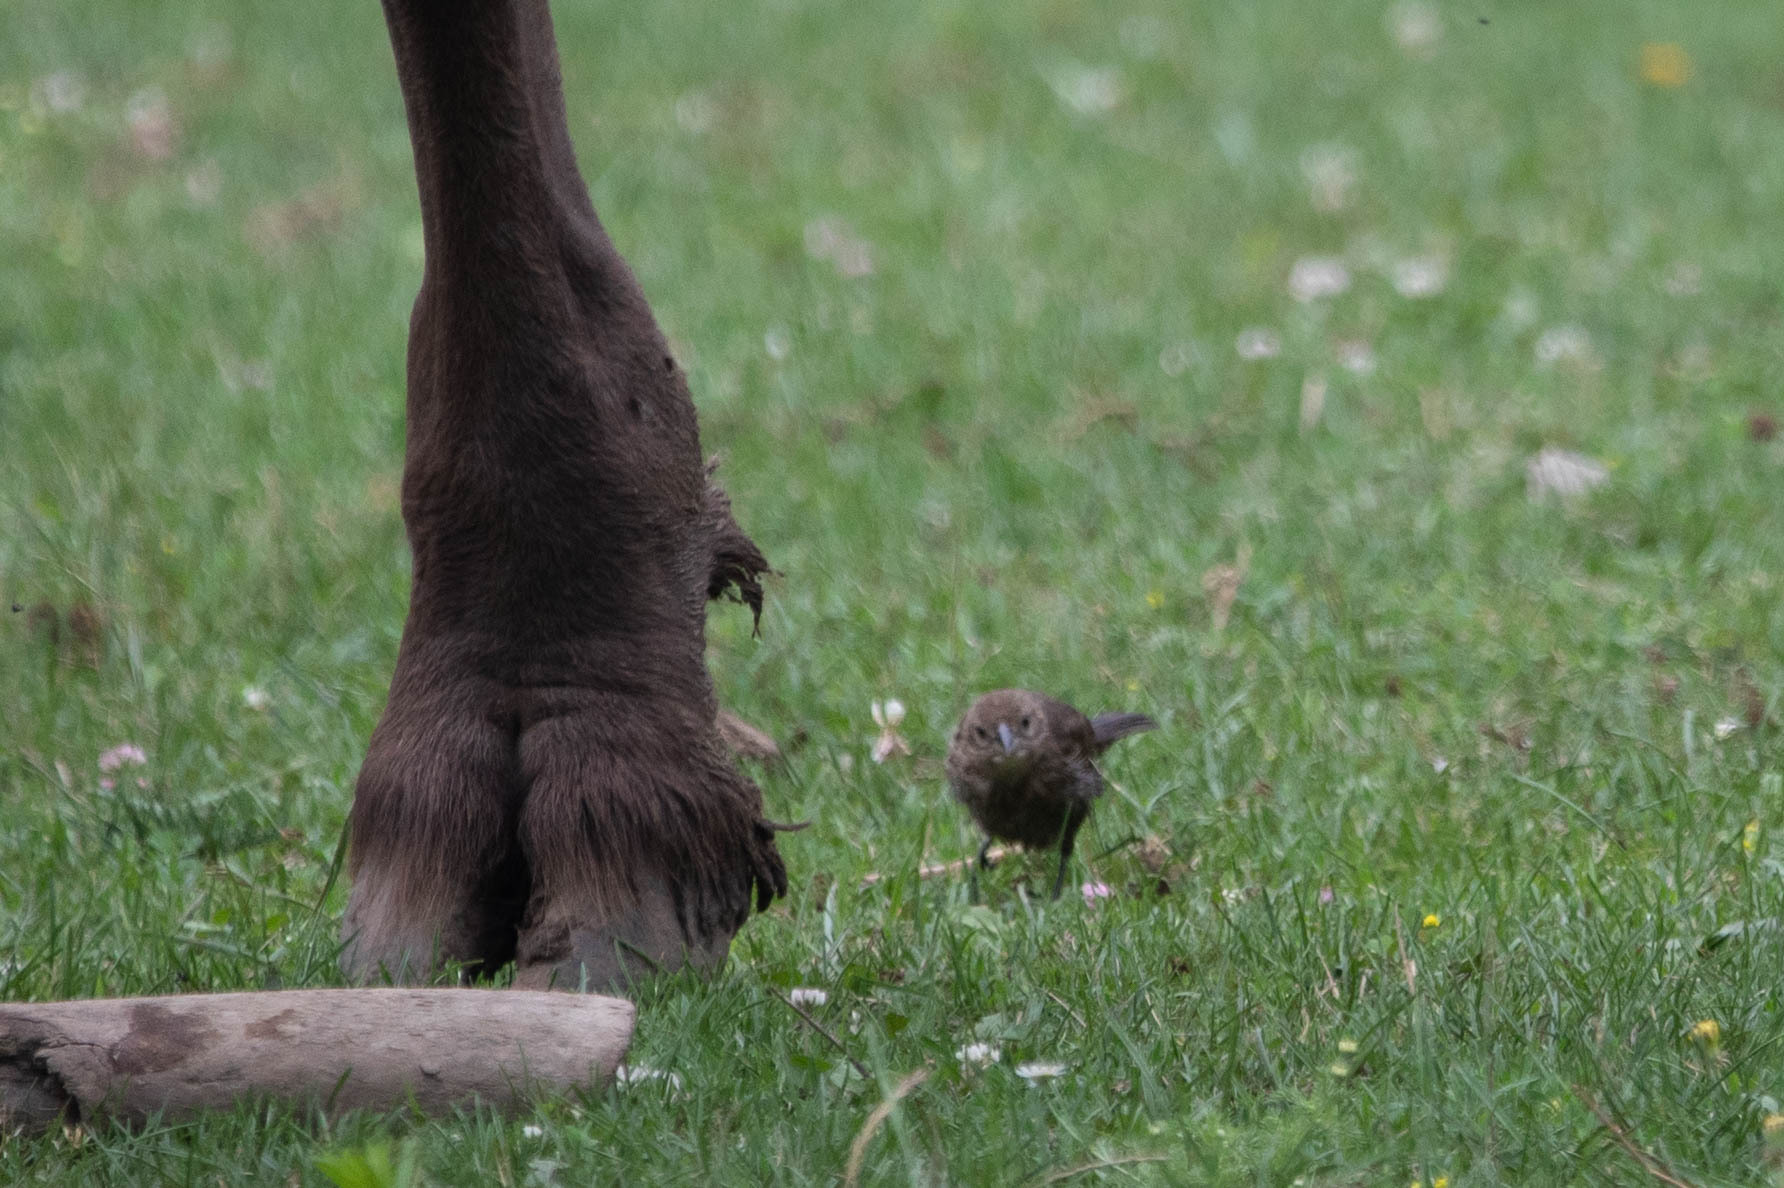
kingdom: Animalia
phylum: Chordata
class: Aves
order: Passeriformes
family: Icteridae
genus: Molothrus
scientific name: Molothrus ater
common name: Brown-headed cowbird
